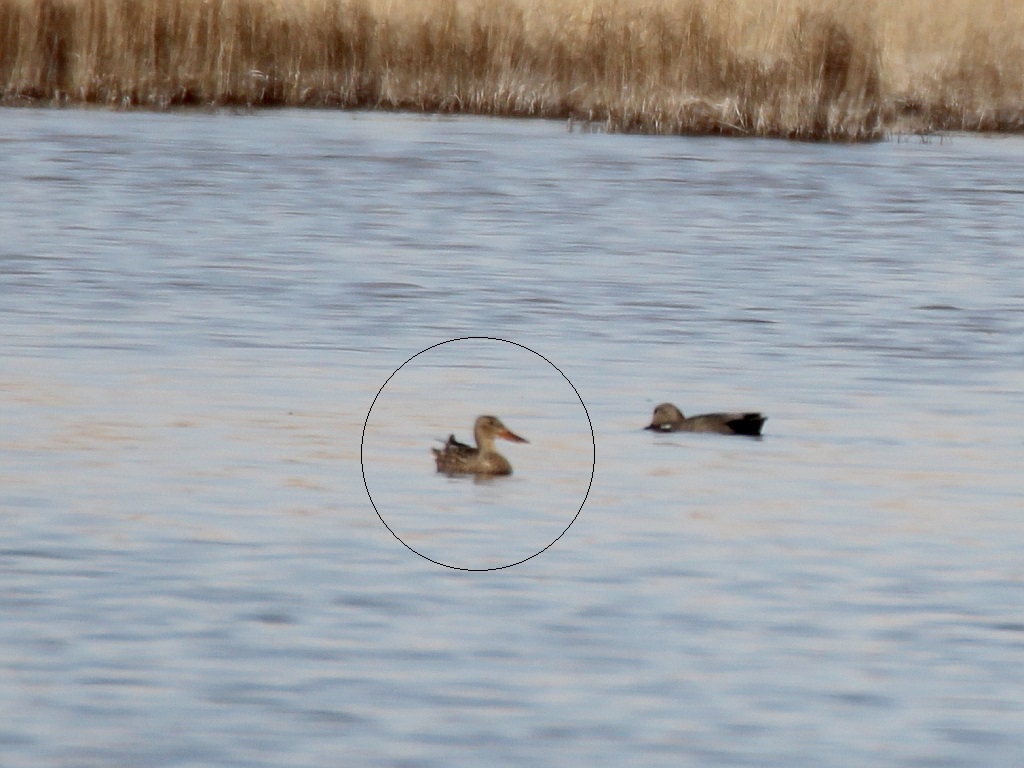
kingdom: Animalia
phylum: Chordata
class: Aves
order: Anseriformes
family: Anatidae
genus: Spatula
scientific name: Spatula clypeata
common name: Northern shoveler
